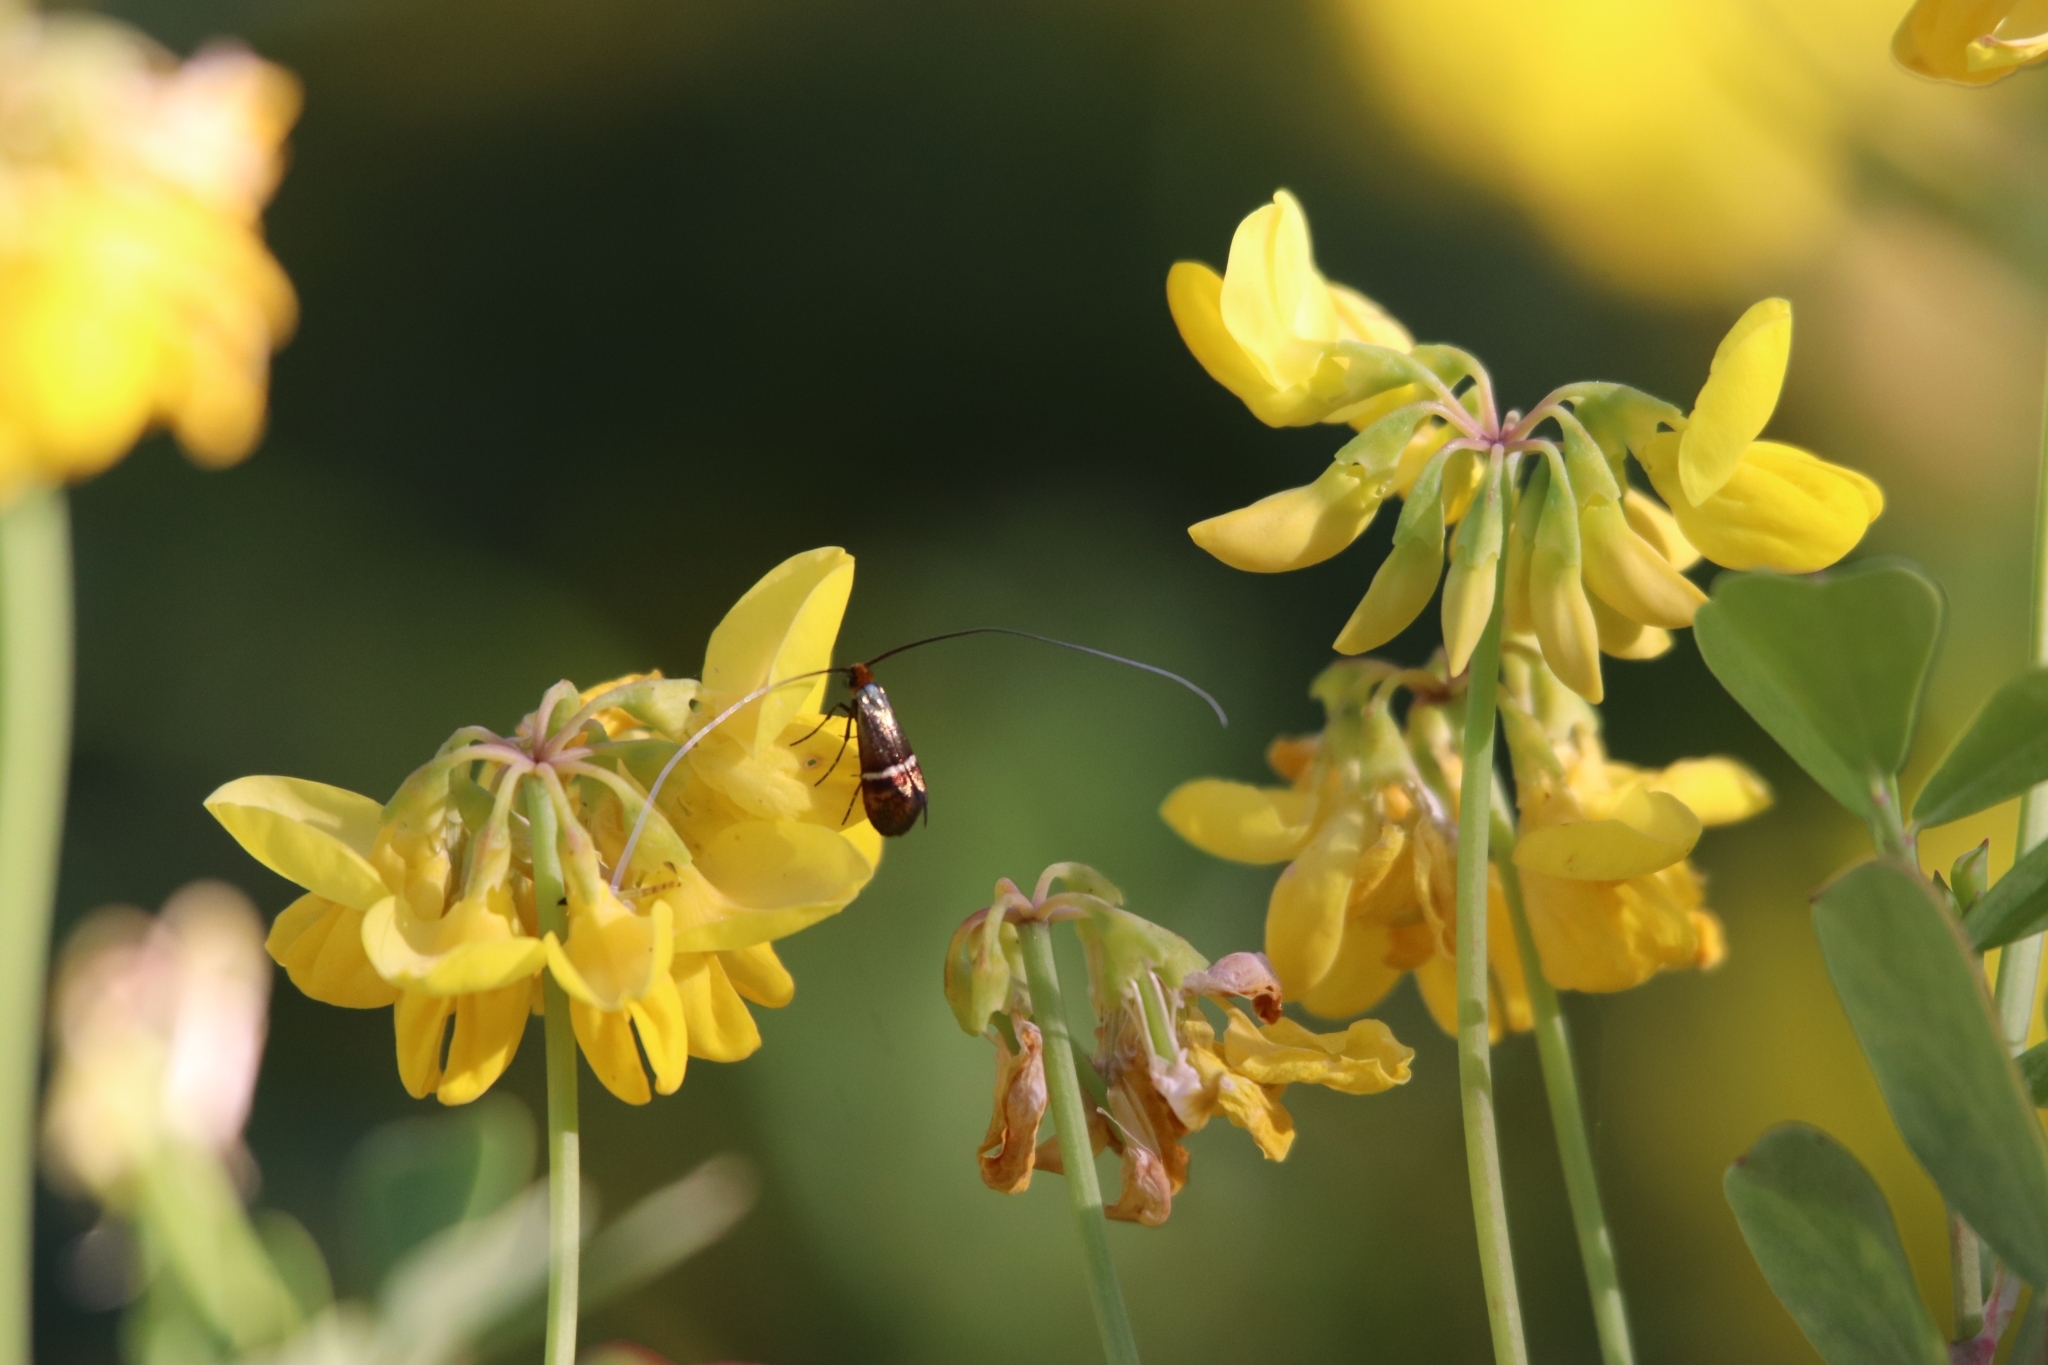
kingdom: Animalia
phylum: Arthropoda
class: Insecta
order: Lepidoptera
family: Adelidae
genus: Adela
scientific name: Adela australis
